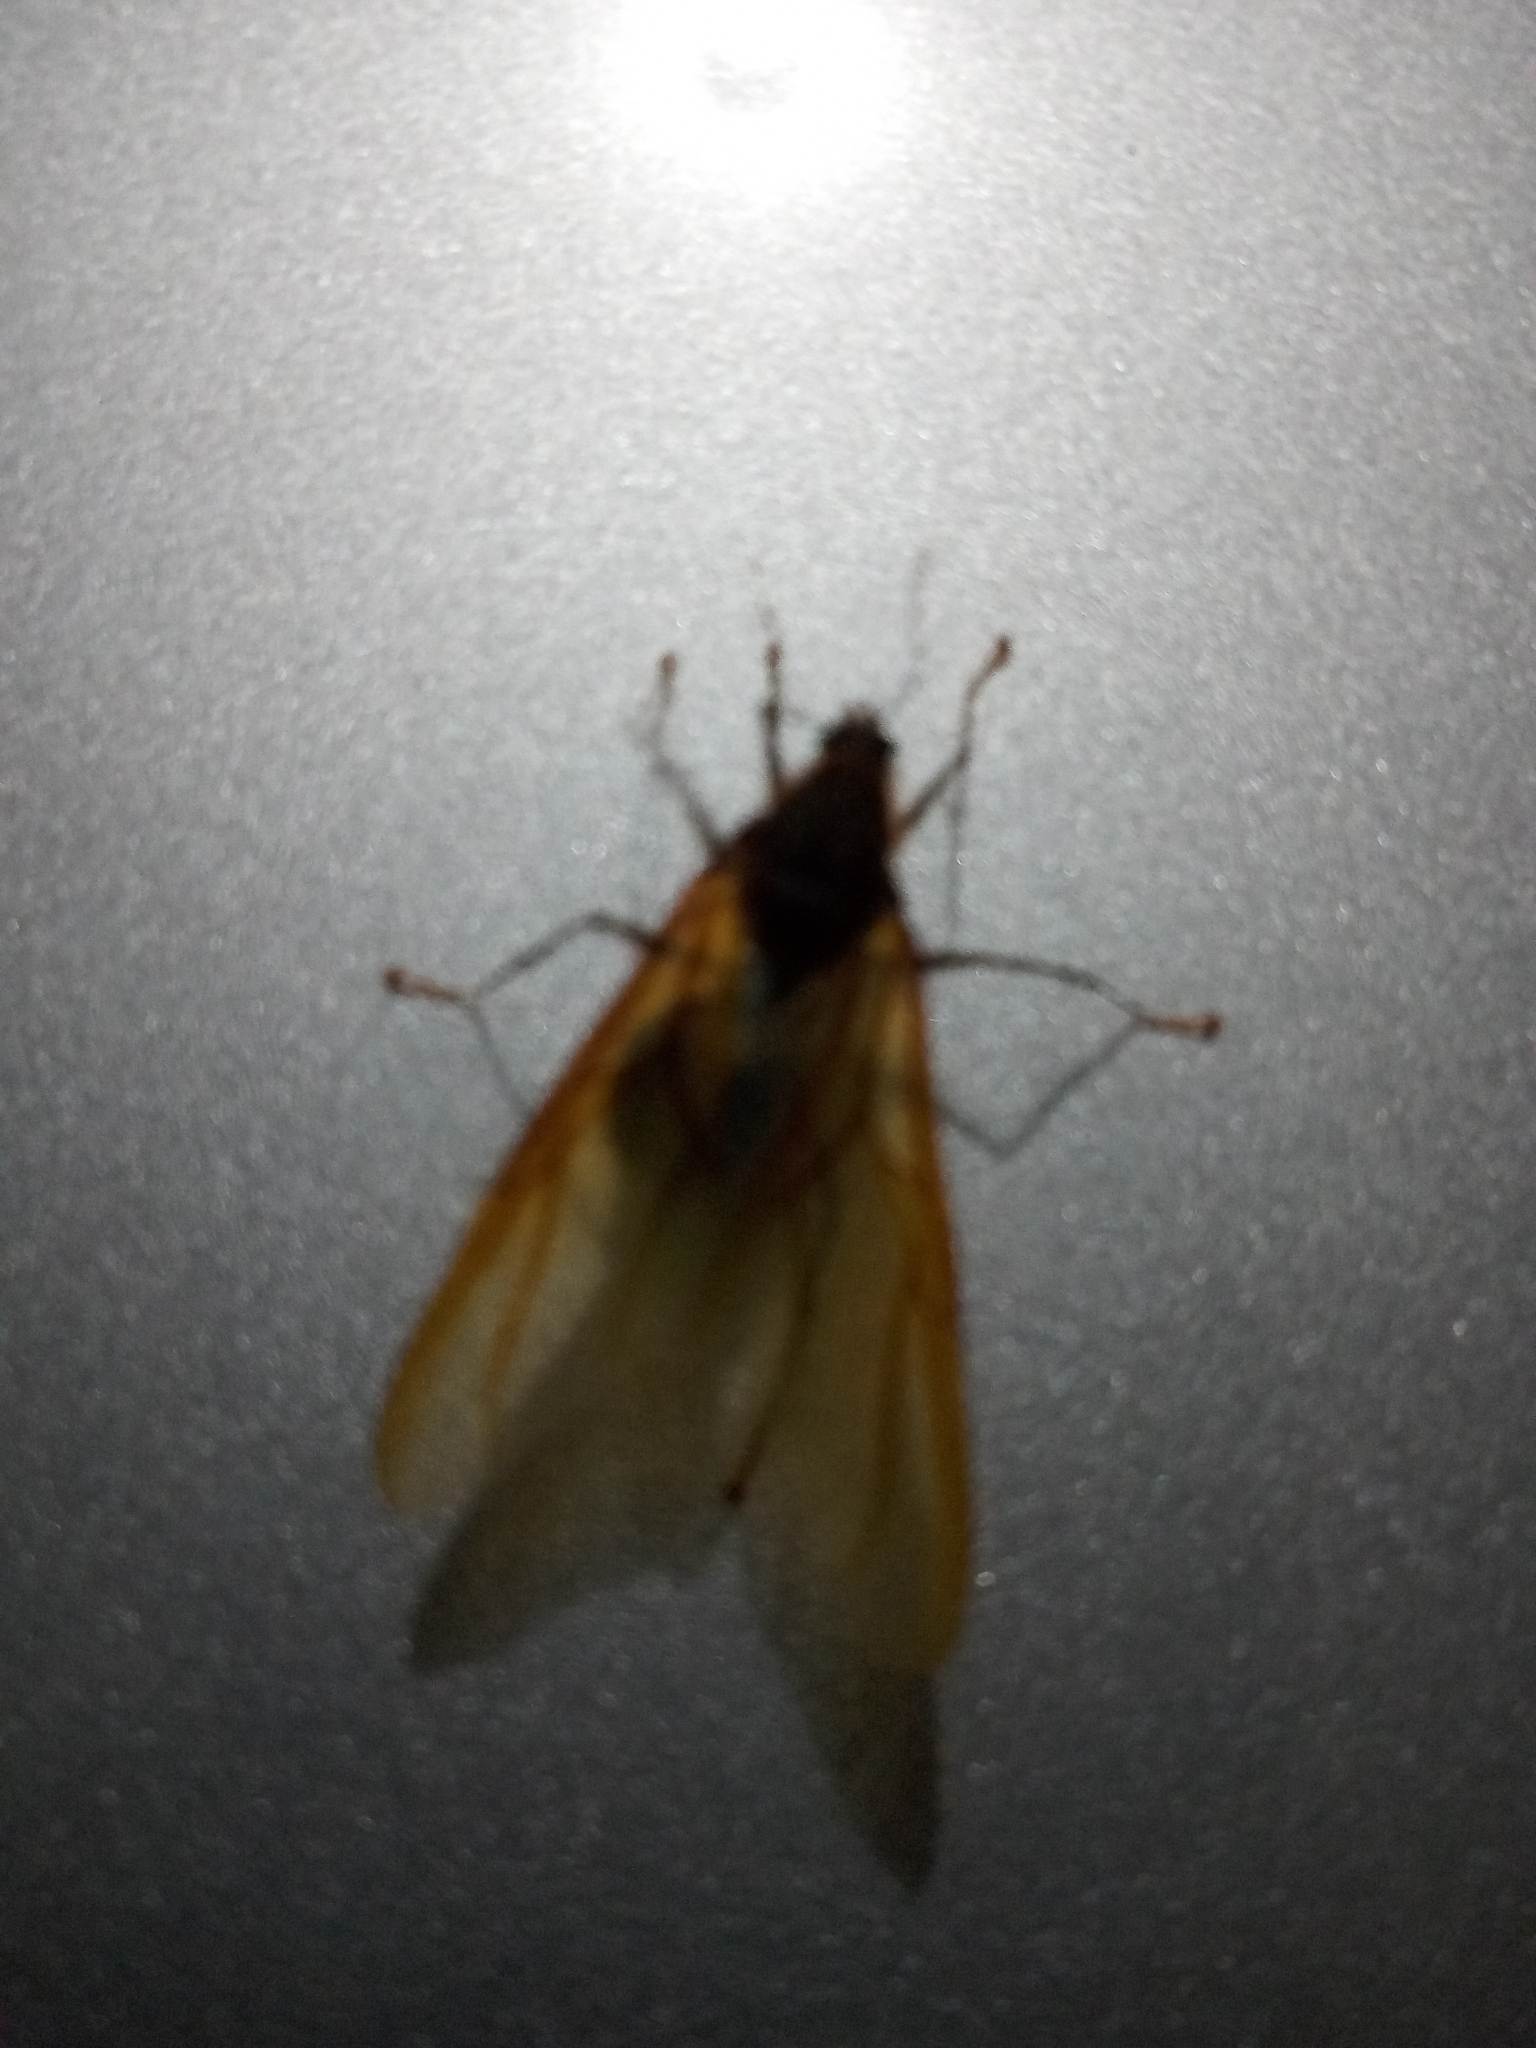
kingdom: Animalia
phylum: Arthropoda
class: Insecta
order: Hymenoptera
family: Formicidae
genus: Atta
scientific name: Atta cephalotes
